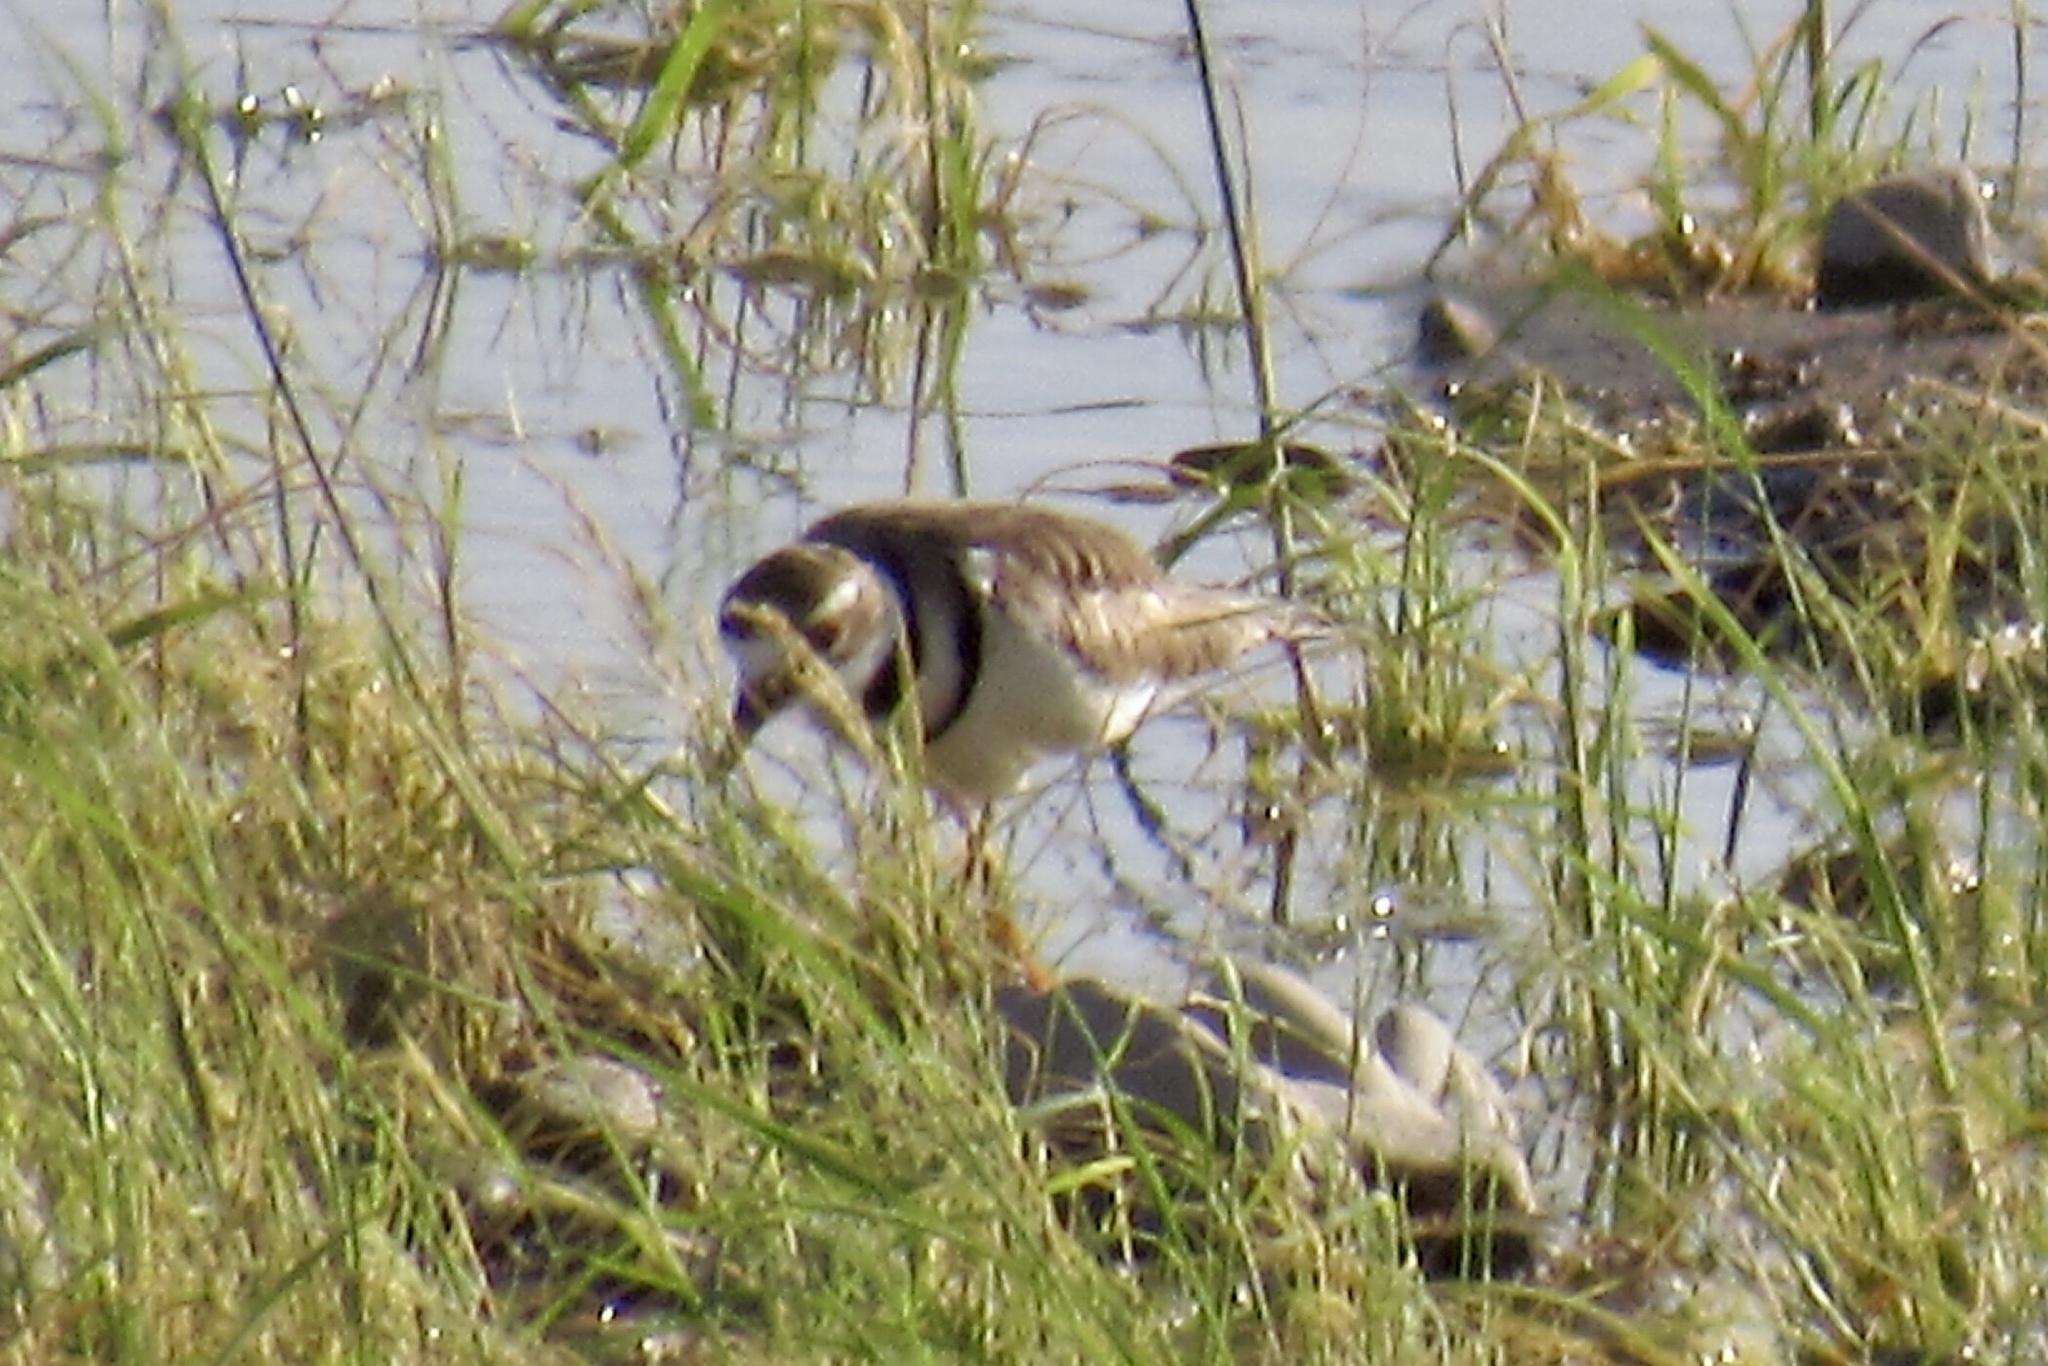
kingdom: Animalia
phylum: Chordata
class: Aves
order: Charadriiformes
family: Charadriidae
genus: Charadrius
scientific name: Charadrius vociferus
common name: Killdeer
